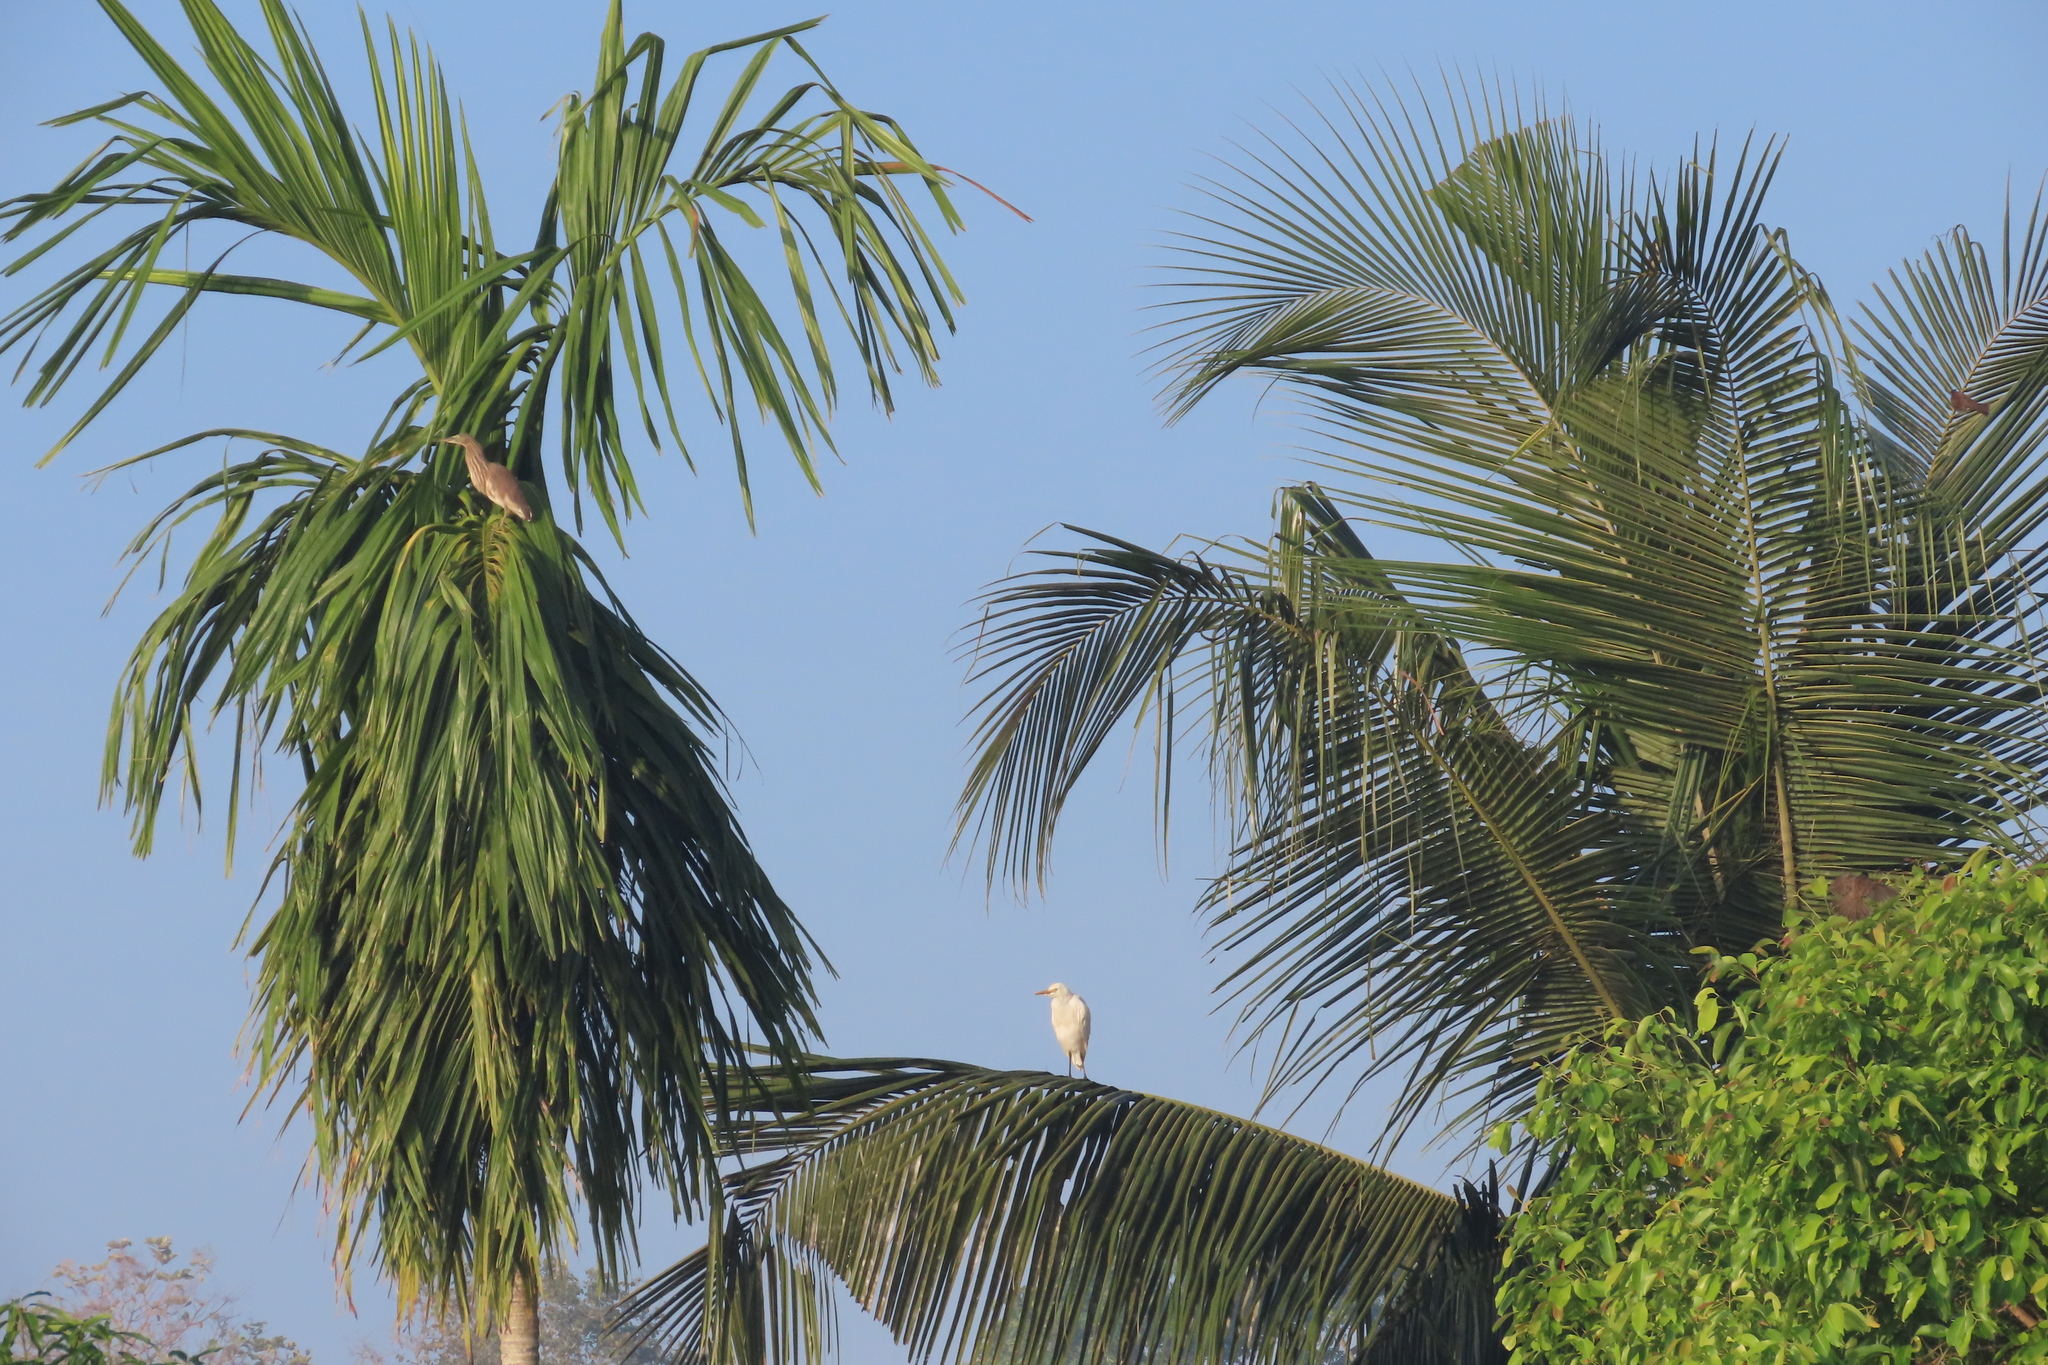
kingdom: Animalia
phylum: Chordata
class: Aves
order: Pelecaniformes
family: Ardeidae
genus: Bubulcus
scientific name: Bubulcus coromandus
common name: Eastern cattle egret
